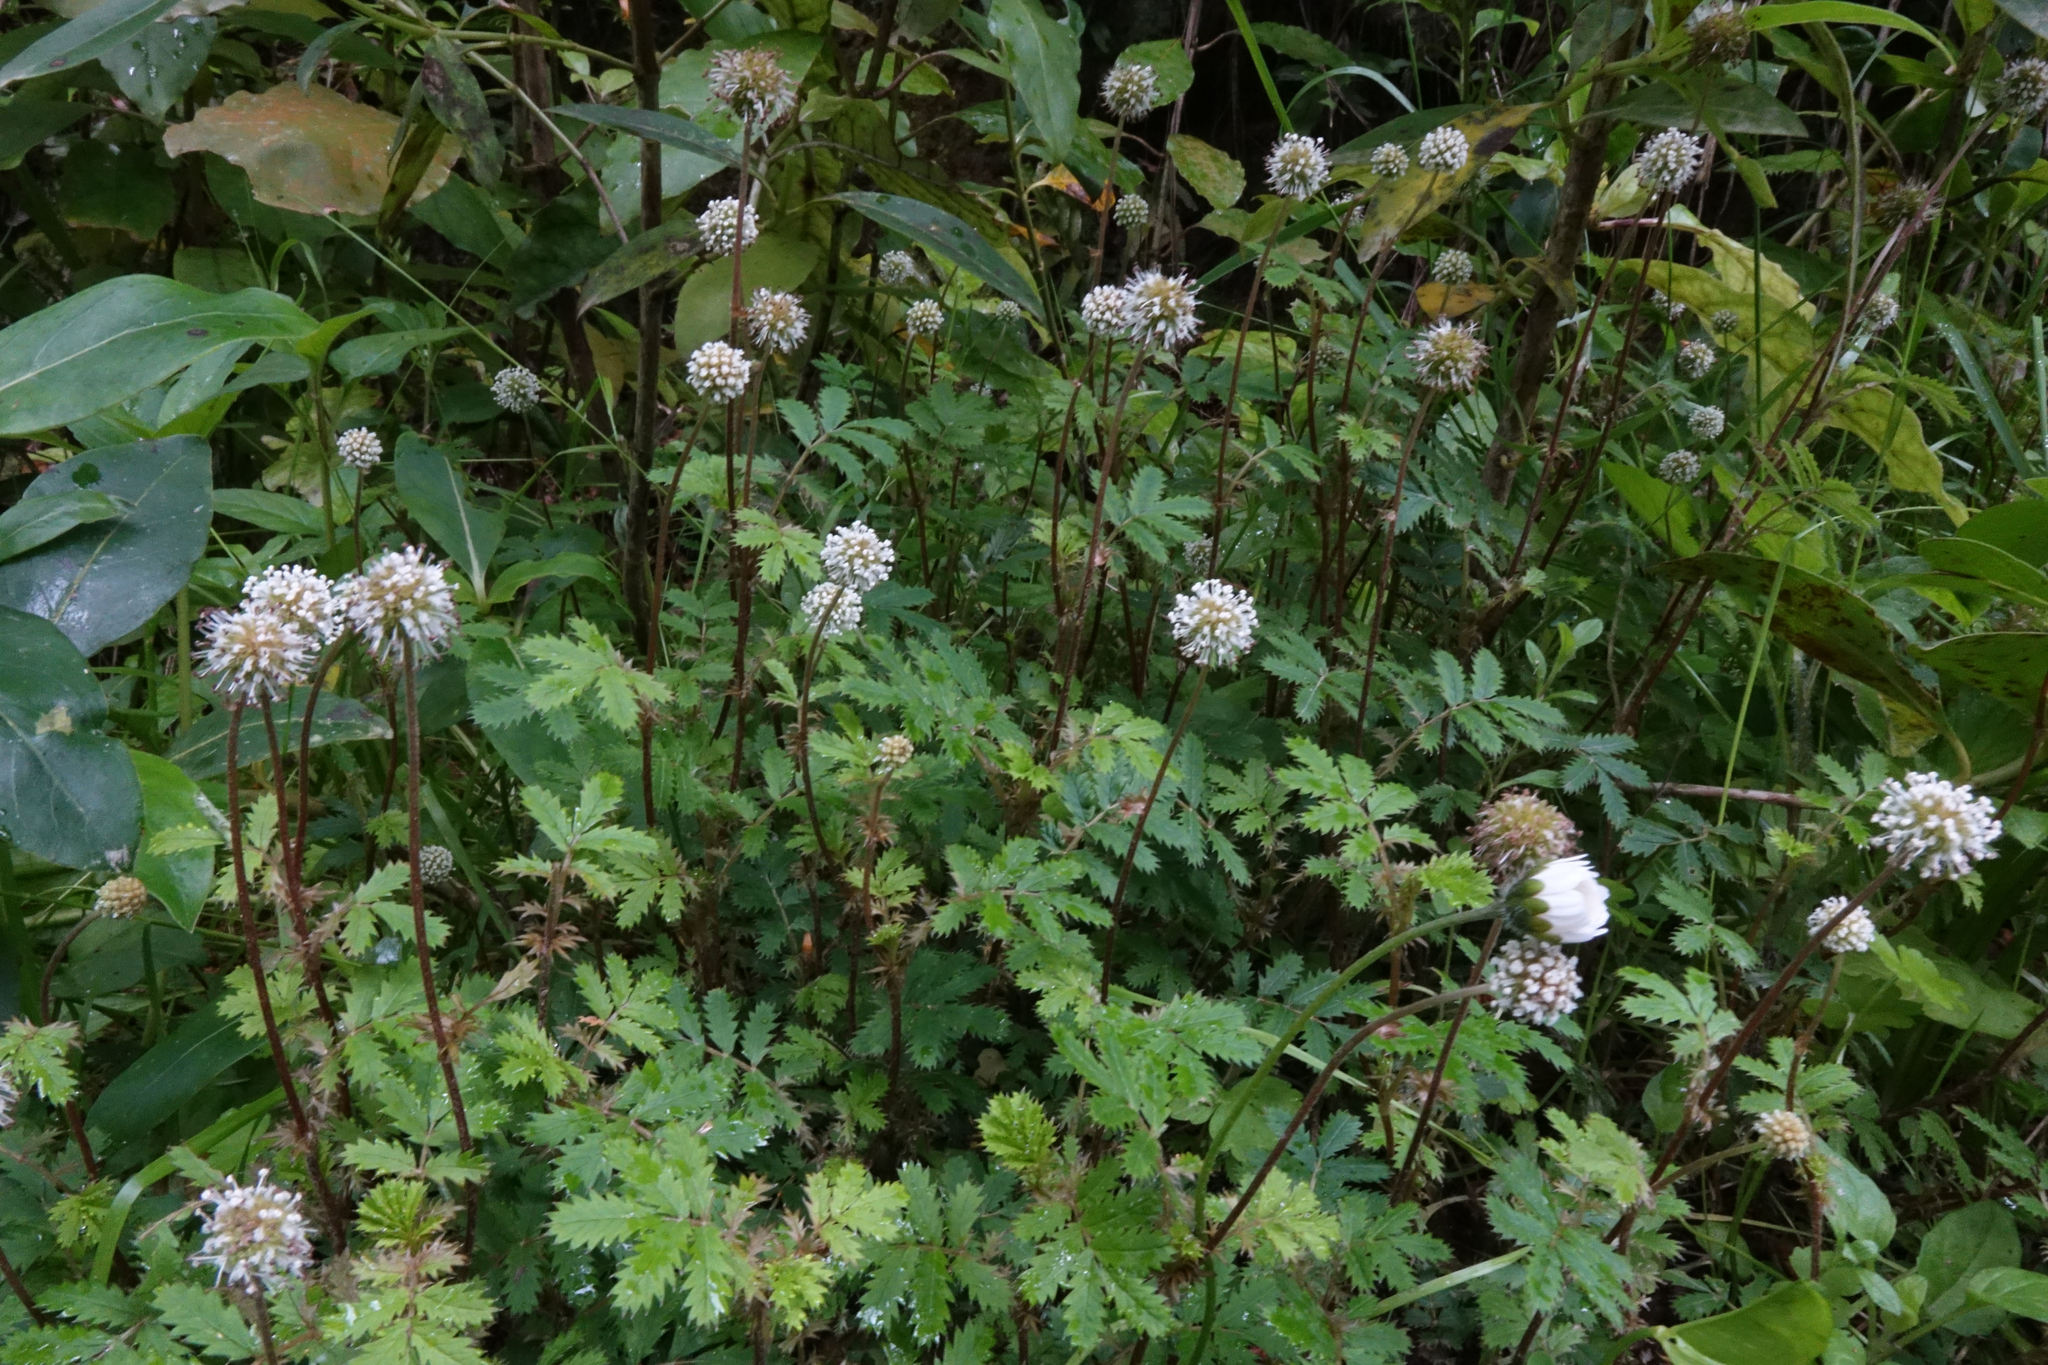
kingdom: Plantae
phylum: Tracheophyta
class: Magnoliopsida
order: Rosales
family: Rosaceae
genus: Acaena
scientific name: Acaena anserinifolia
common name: Bronze pirri-pirri-bur
